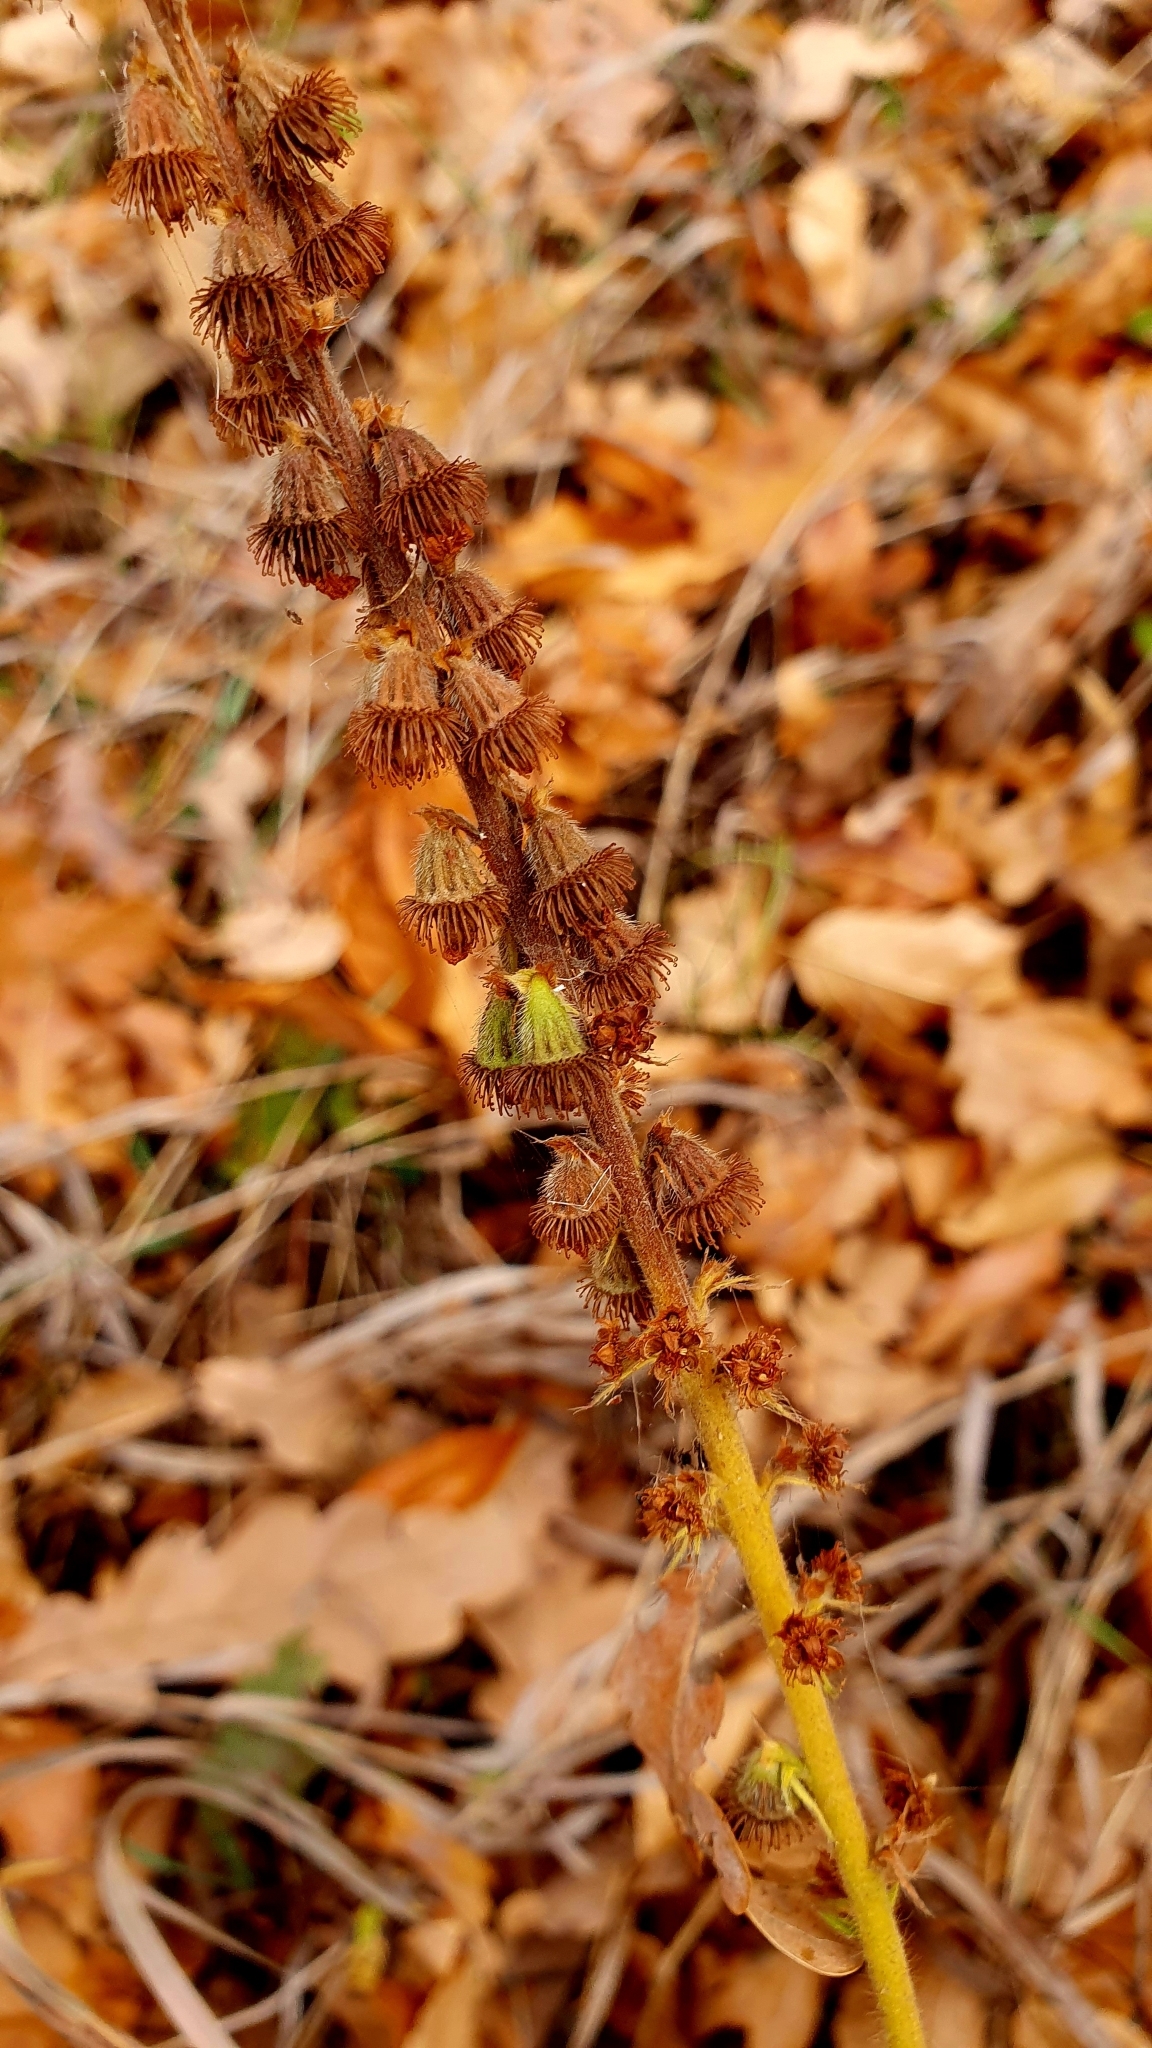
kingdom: Plantae
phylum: Tracheophyta
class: Magnoliopsida
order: Rosales
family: Rosaceae
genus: Agrimonia
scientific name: Agrimonia eupatoria
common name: Agrimony
